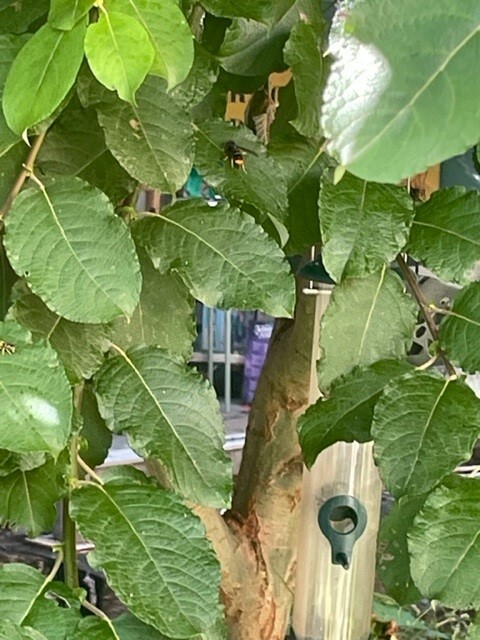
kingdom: Animalia
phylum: Arthropoda
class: Insecta
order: Hymenoptera
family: Vespidae
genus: Vespa
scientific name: Vespa velutina
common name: Asian hornet
